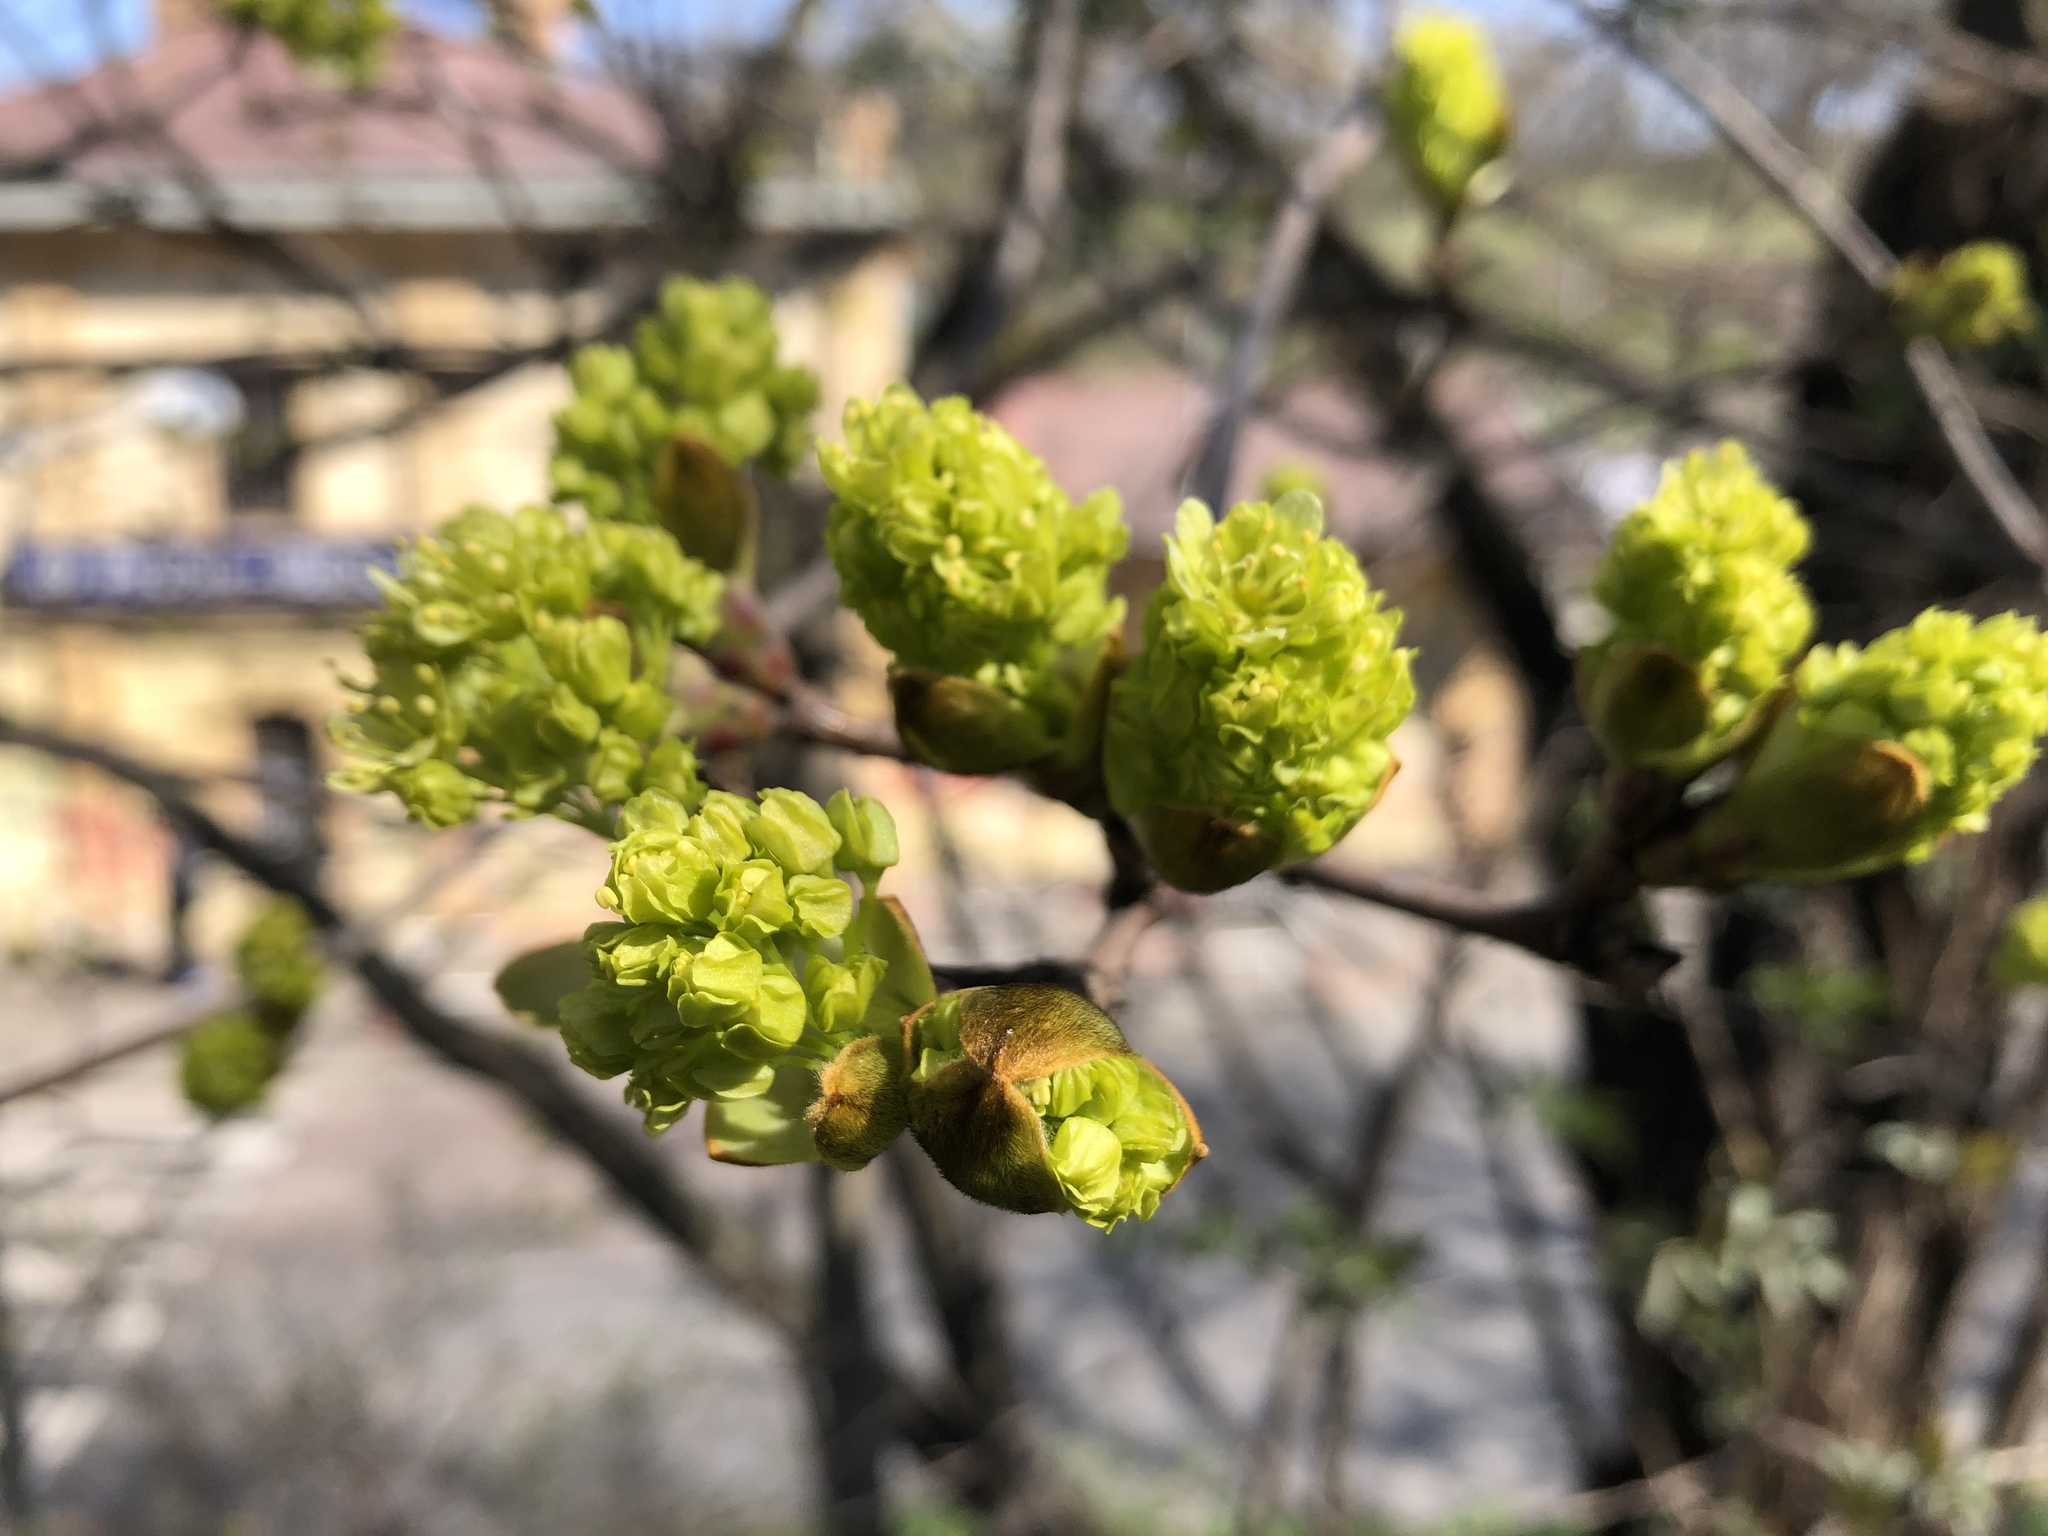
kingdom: Plantae
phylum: Tracheophyta
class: Magnoliopsida
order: Sapindales
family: Sapindaceae
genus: Acer
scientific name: Acer platanoides
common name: Norway maple
